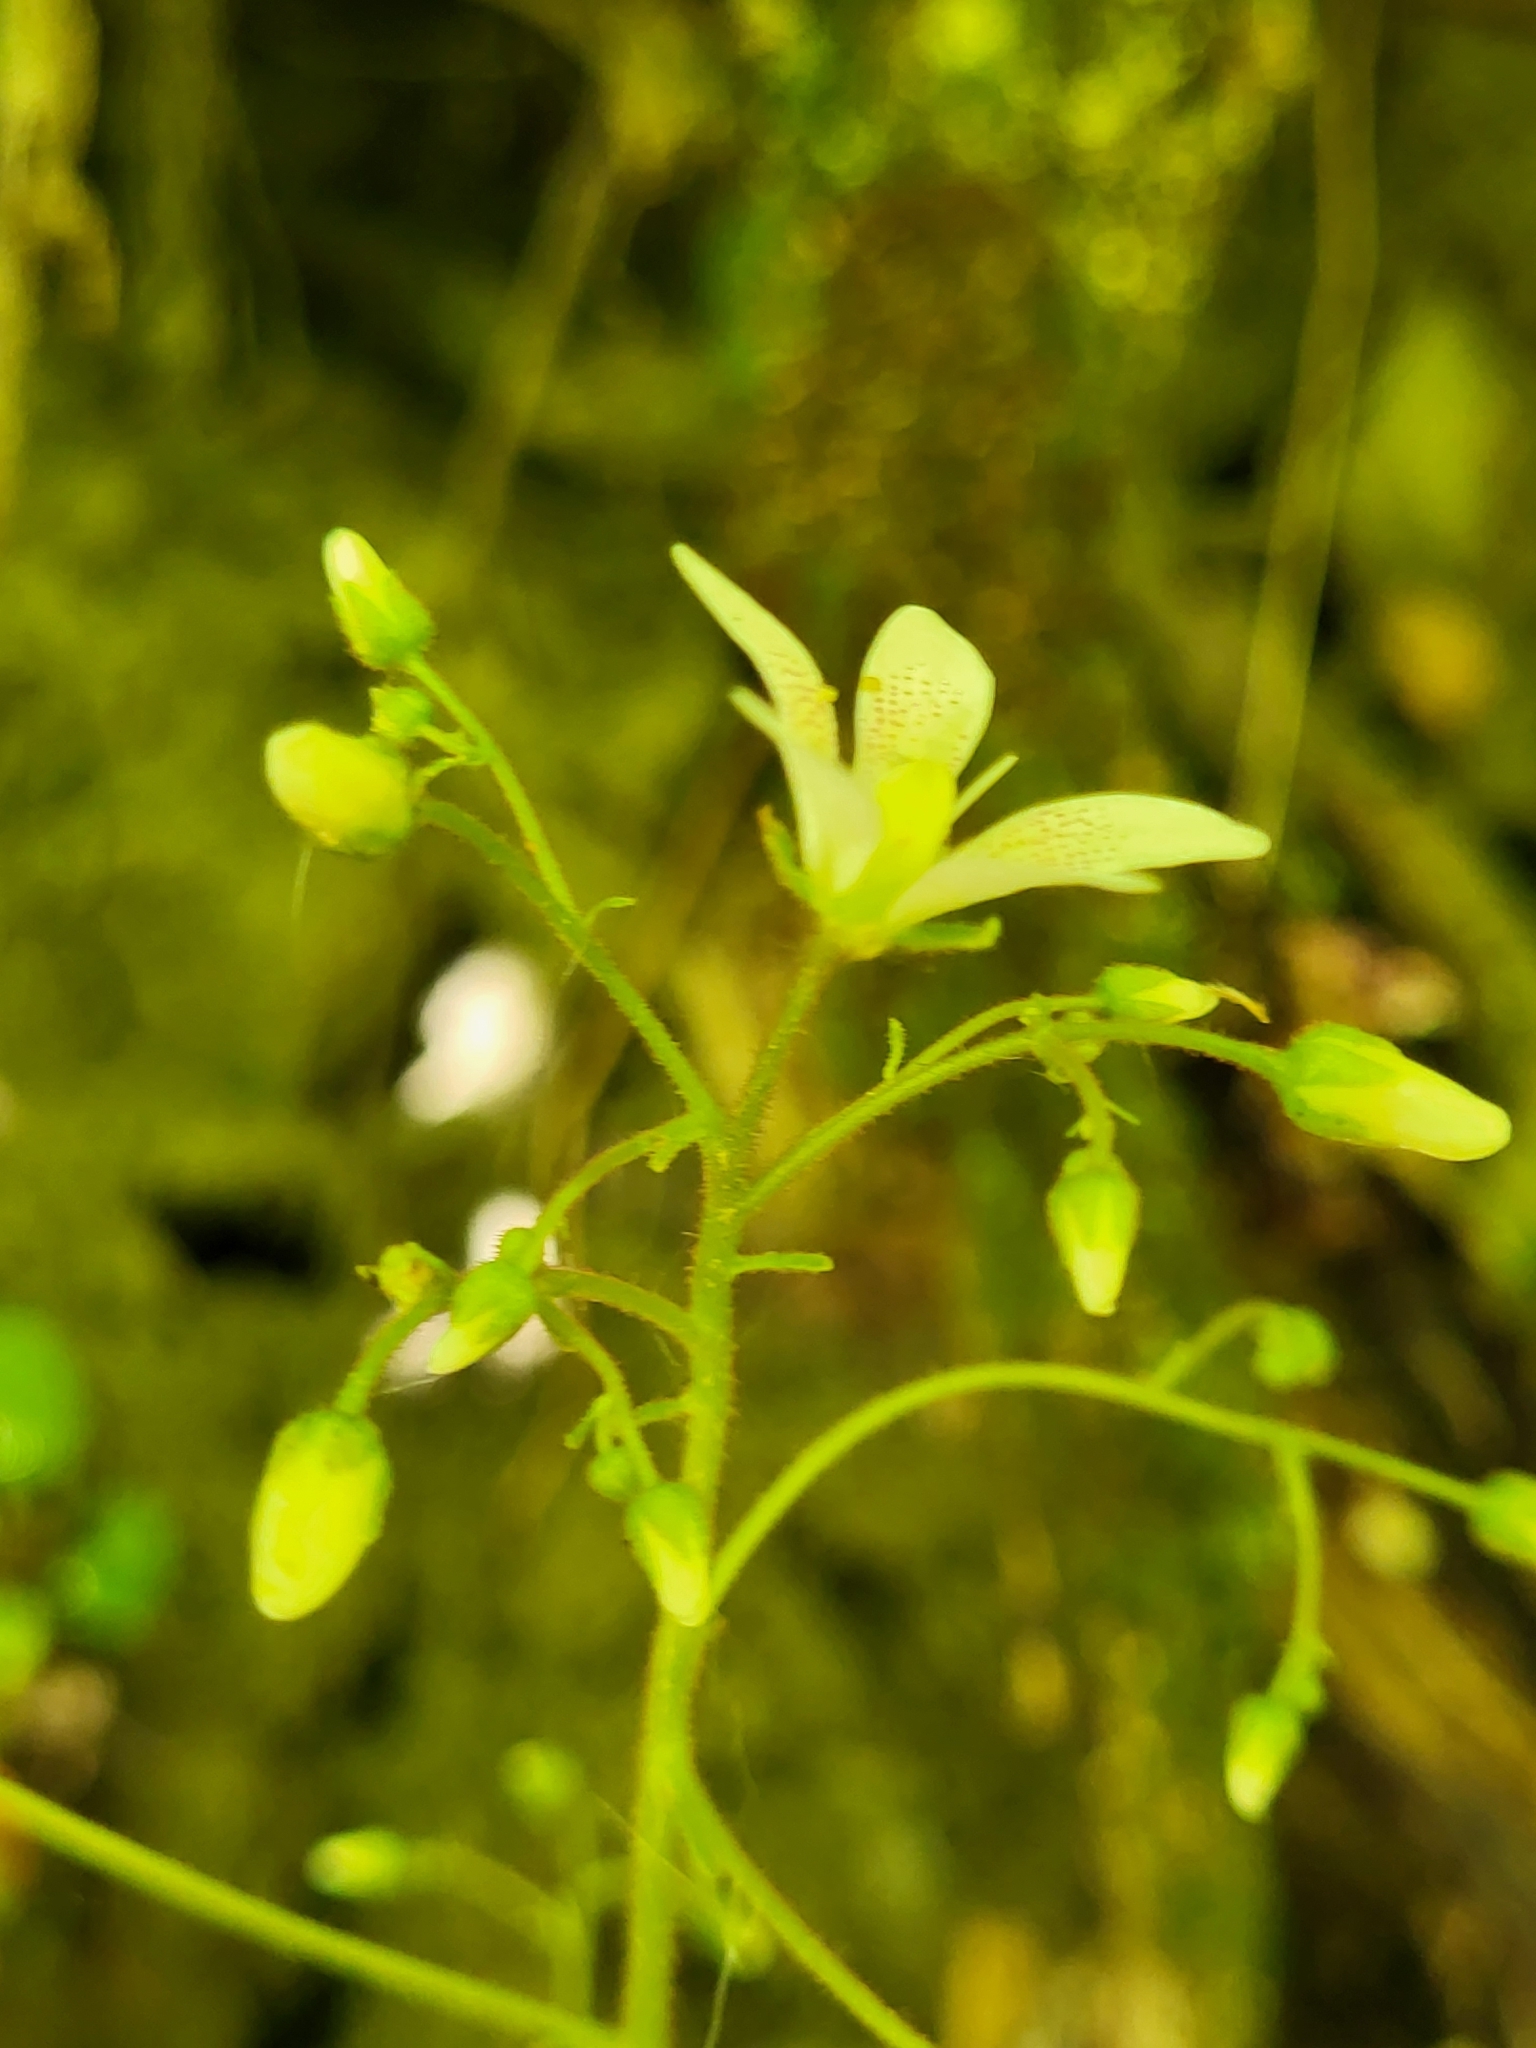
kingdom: Plantae
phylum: Tracheophyta
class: Magnoliopsida
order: Saxifragales
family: Saxifragaceae
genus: Saxifraga
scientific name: Saxifraga rotundifolia
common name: Round-leaved saxifrage
